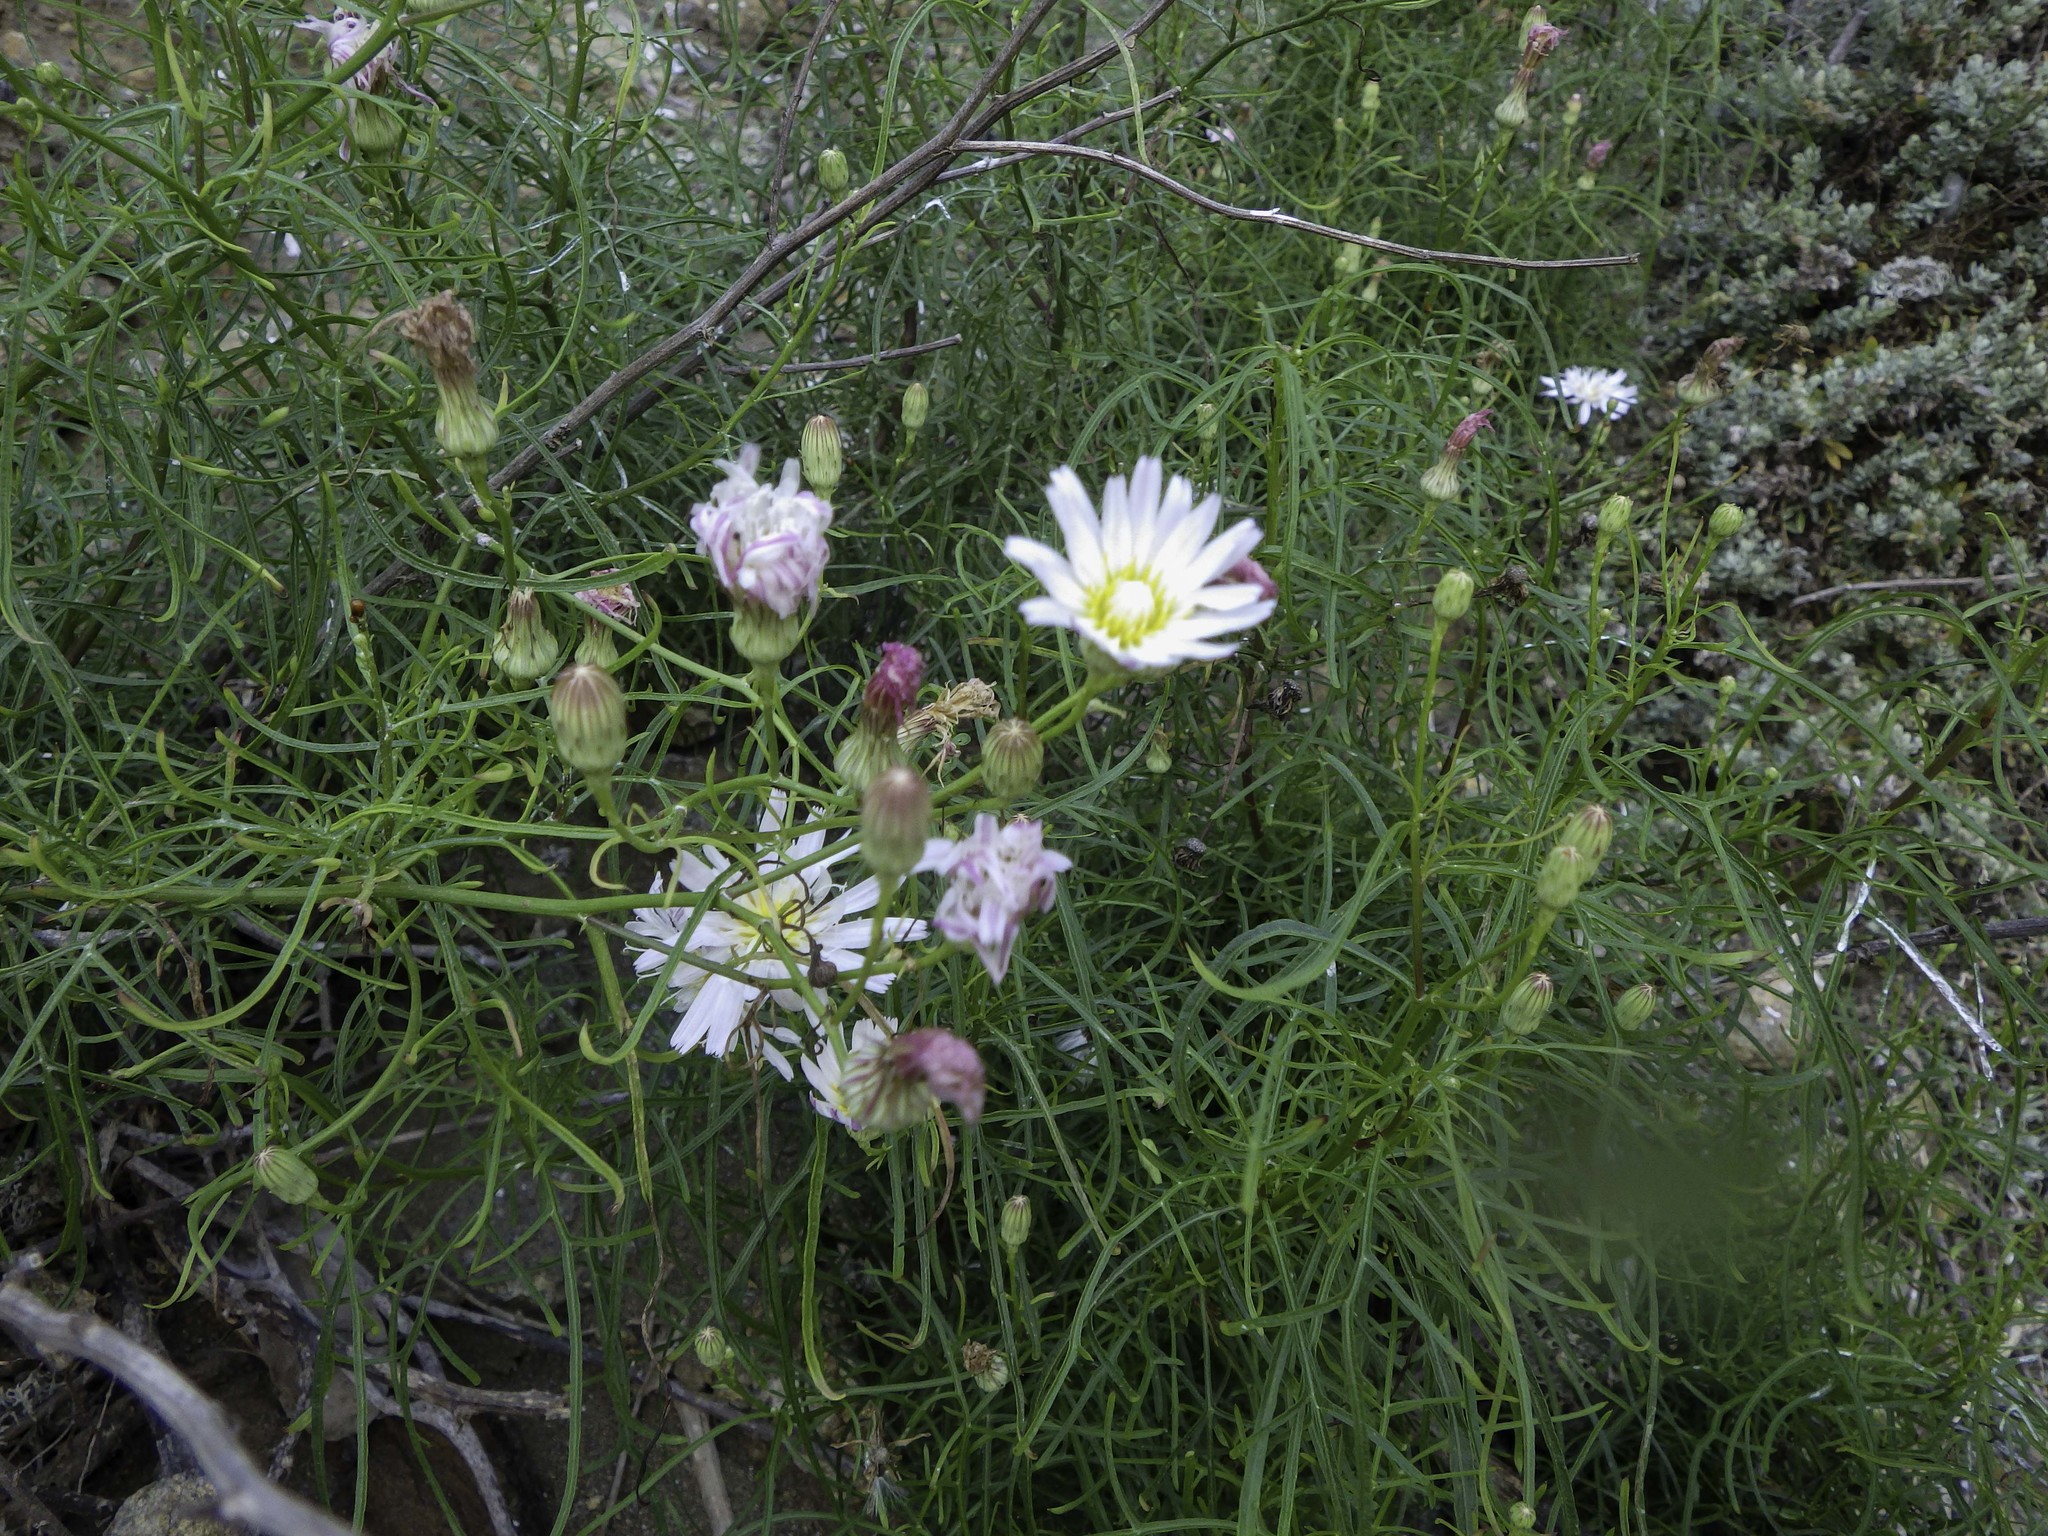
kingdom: Plantae
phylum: Tracheophyta
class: Magnoliopsida
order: Asterales
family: Asteraceae
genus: Malacothrix
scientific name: Malacothrix saxatilis
